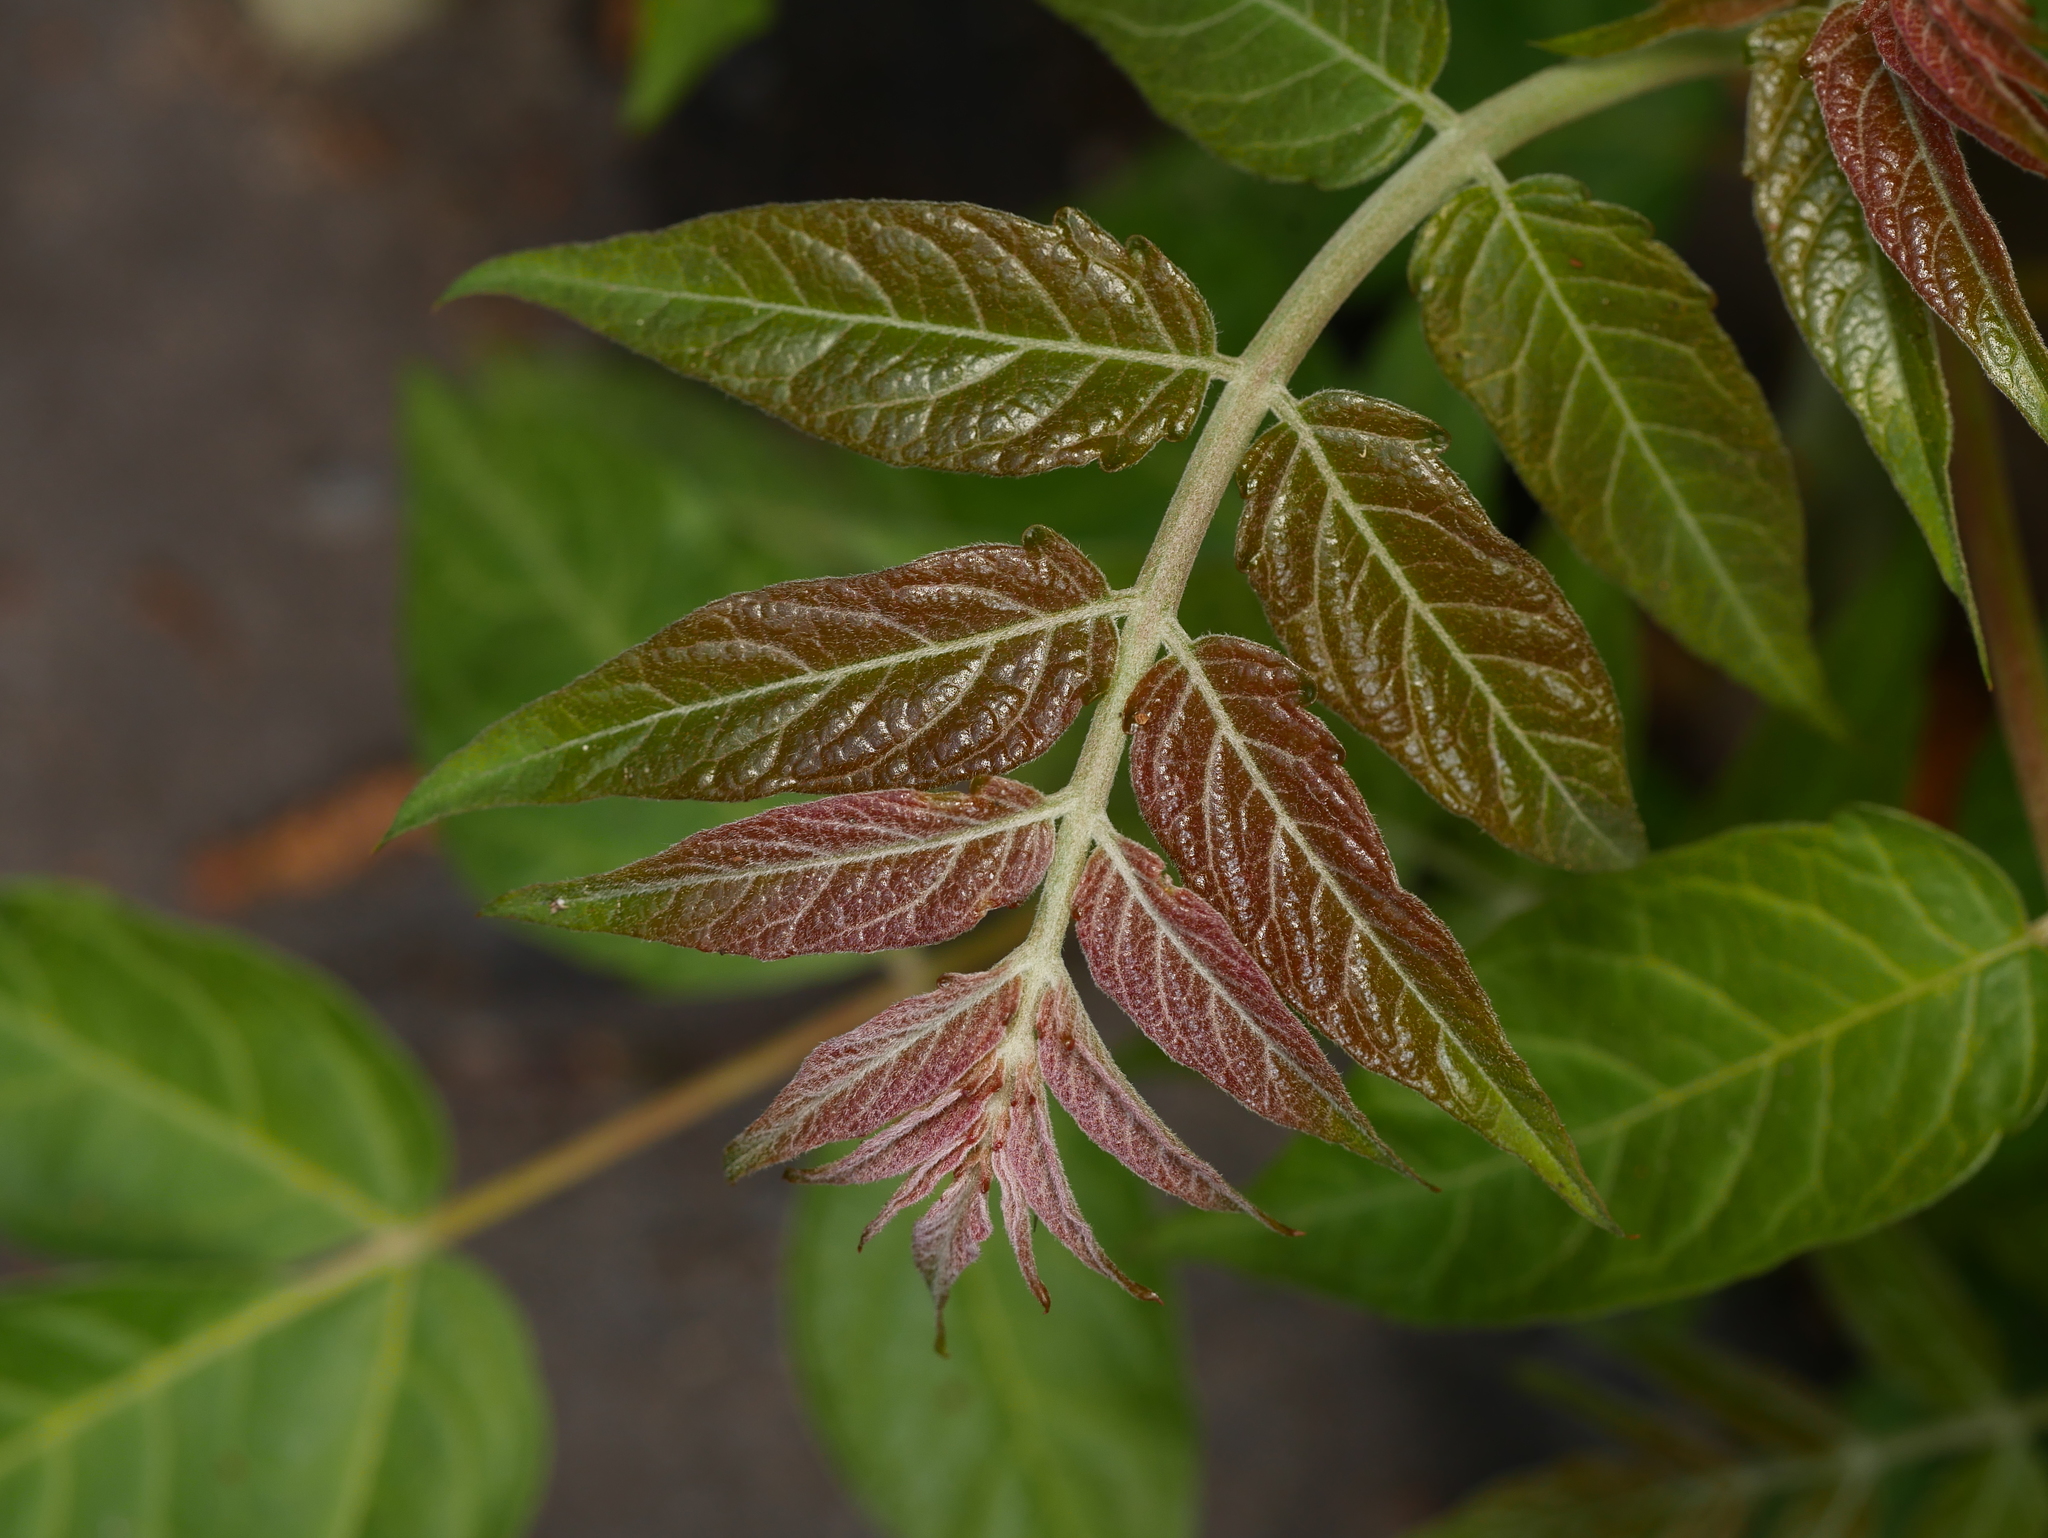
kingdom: Plantae
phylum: Tracheophyta
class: Magnoliopsida
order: Sapindales
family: Simaroubaceae
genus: Ailanthus
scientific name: Ailanthus altissima
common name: Tree-of-heaven
